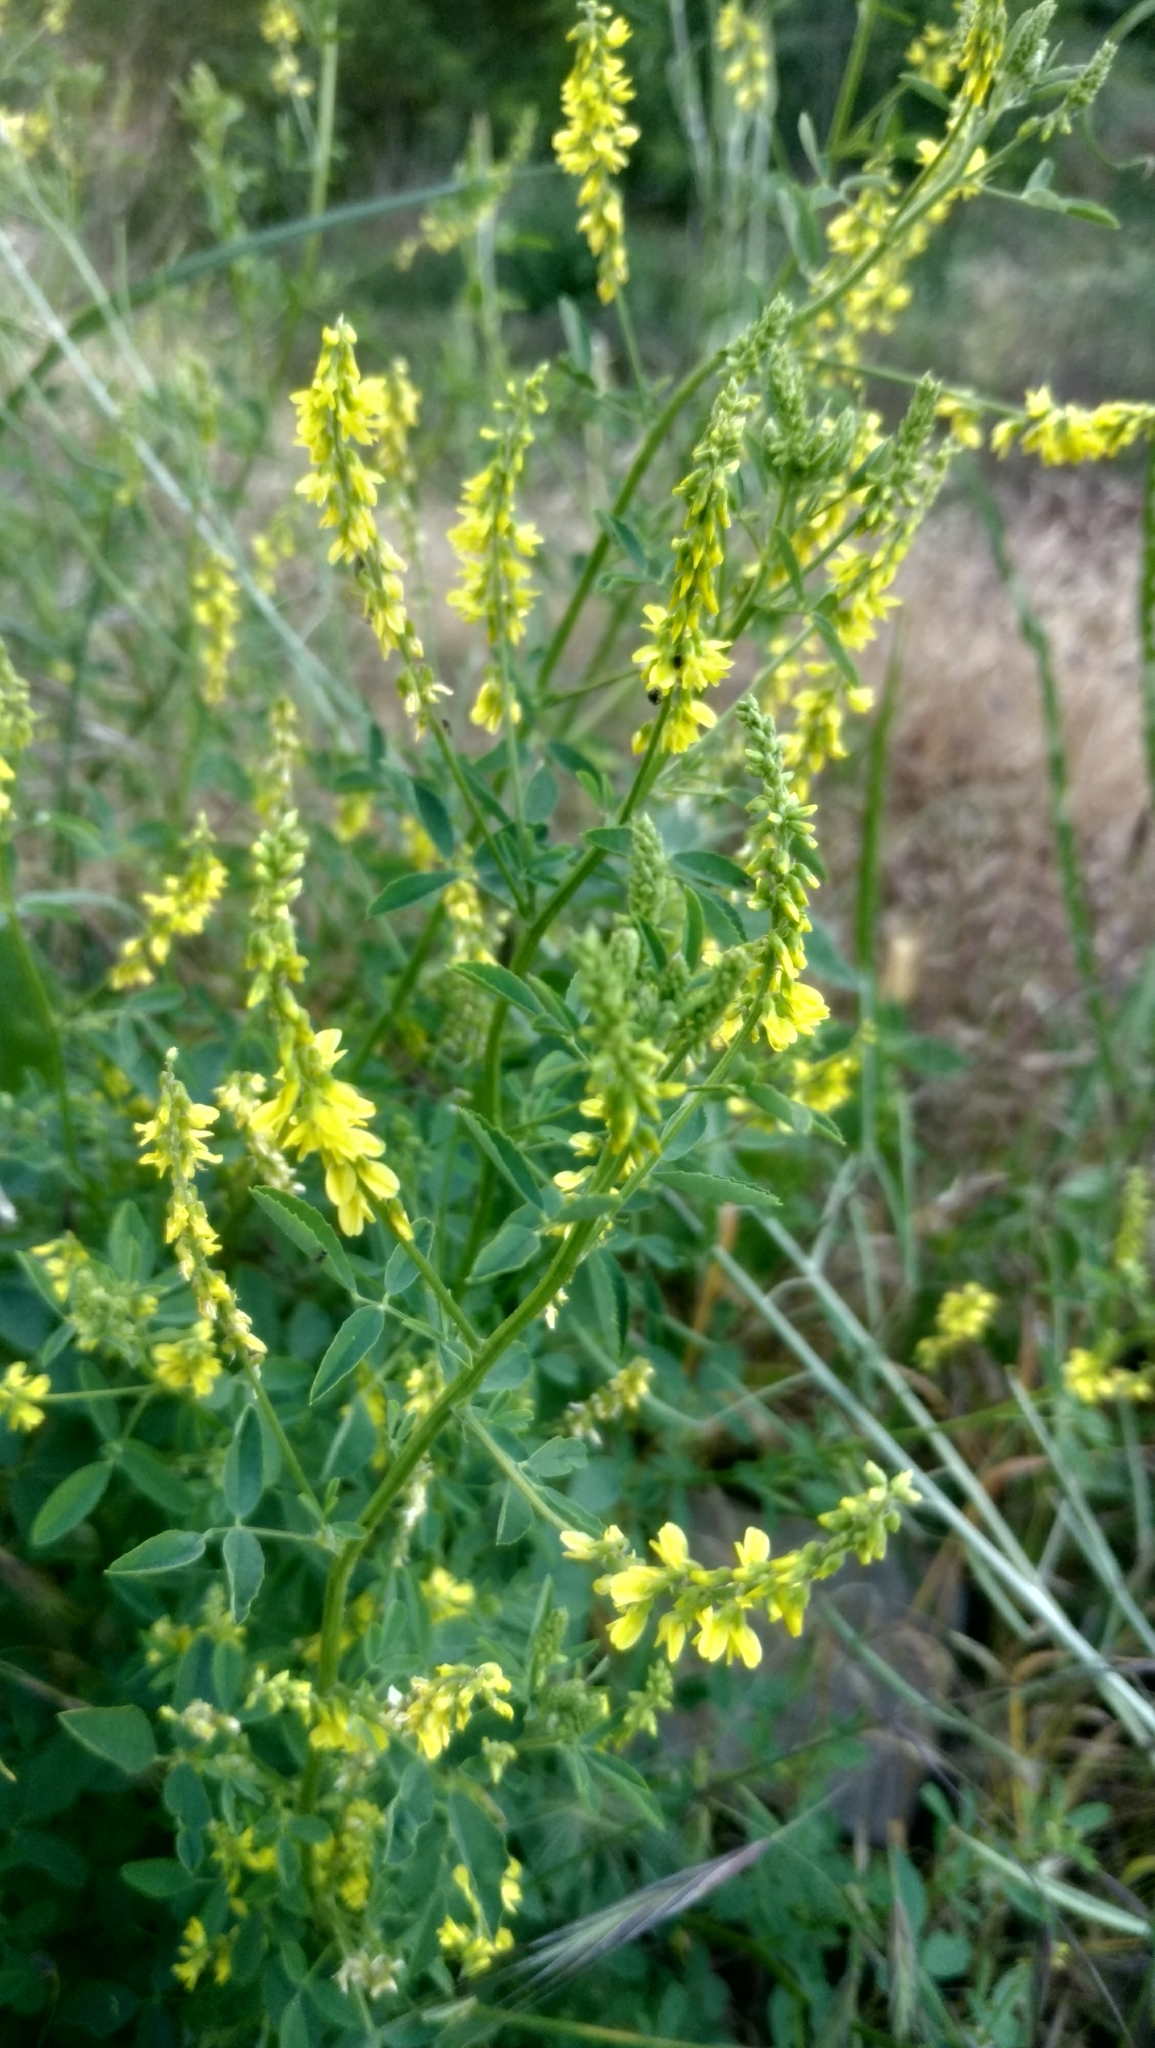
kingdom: Plantae
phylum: Tracheophyta
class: Magnoliopsida
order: Fabales
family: Fabaceae
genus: Melilotus
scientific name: Melilotus officinalis
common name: Sweetclover
